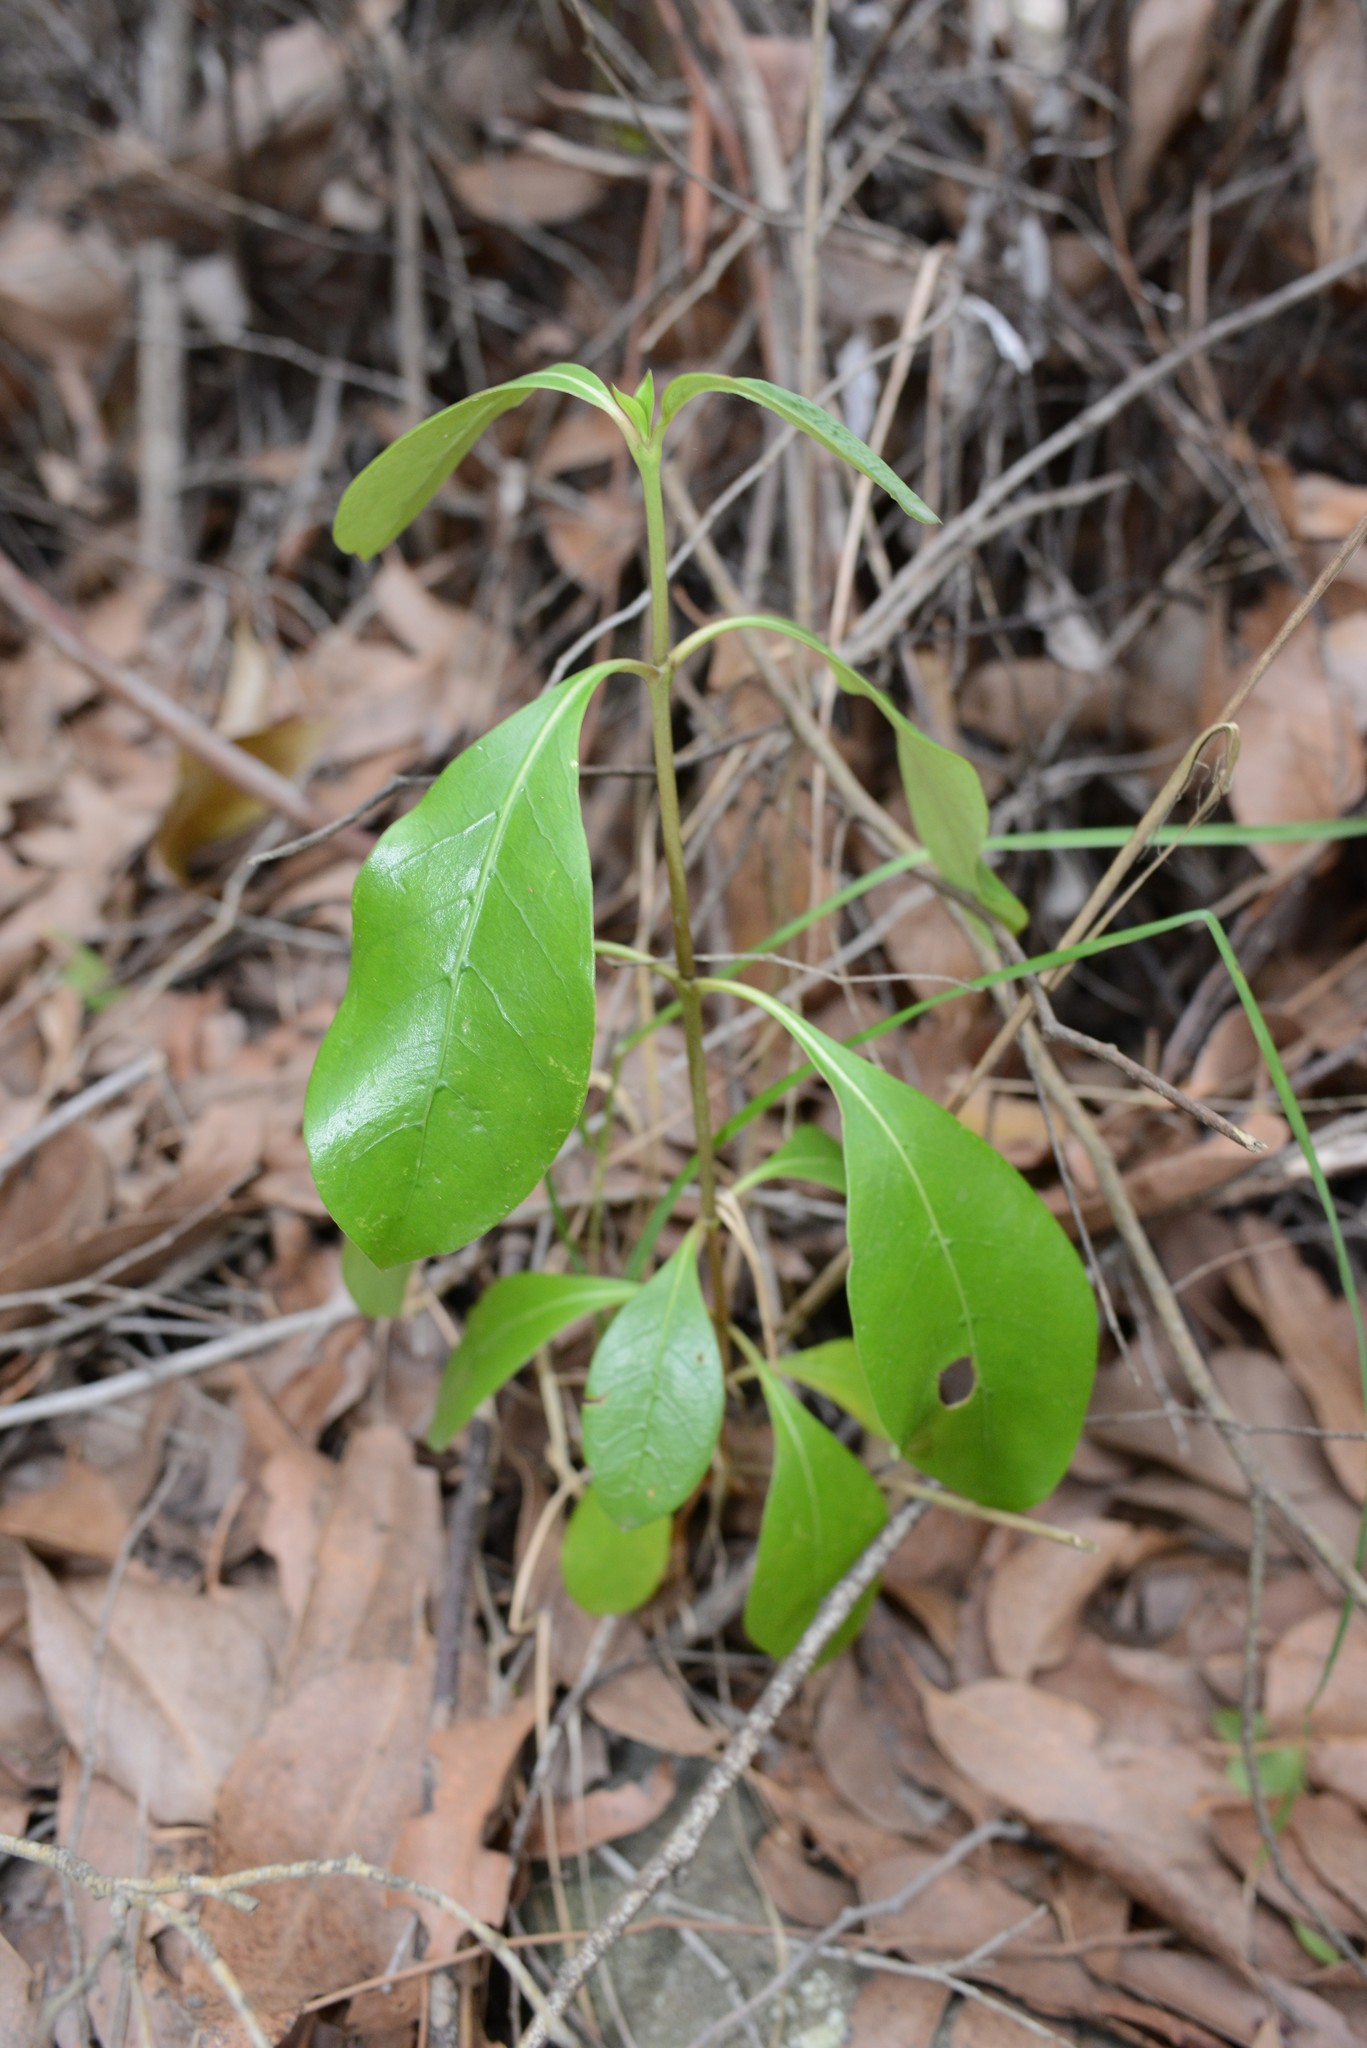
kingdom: Plantae
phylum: Tracheophyta
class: Magnoliopsida
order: Gentianales
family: Rubiaceae
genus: Coprosma
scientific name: Coprosma lucida
